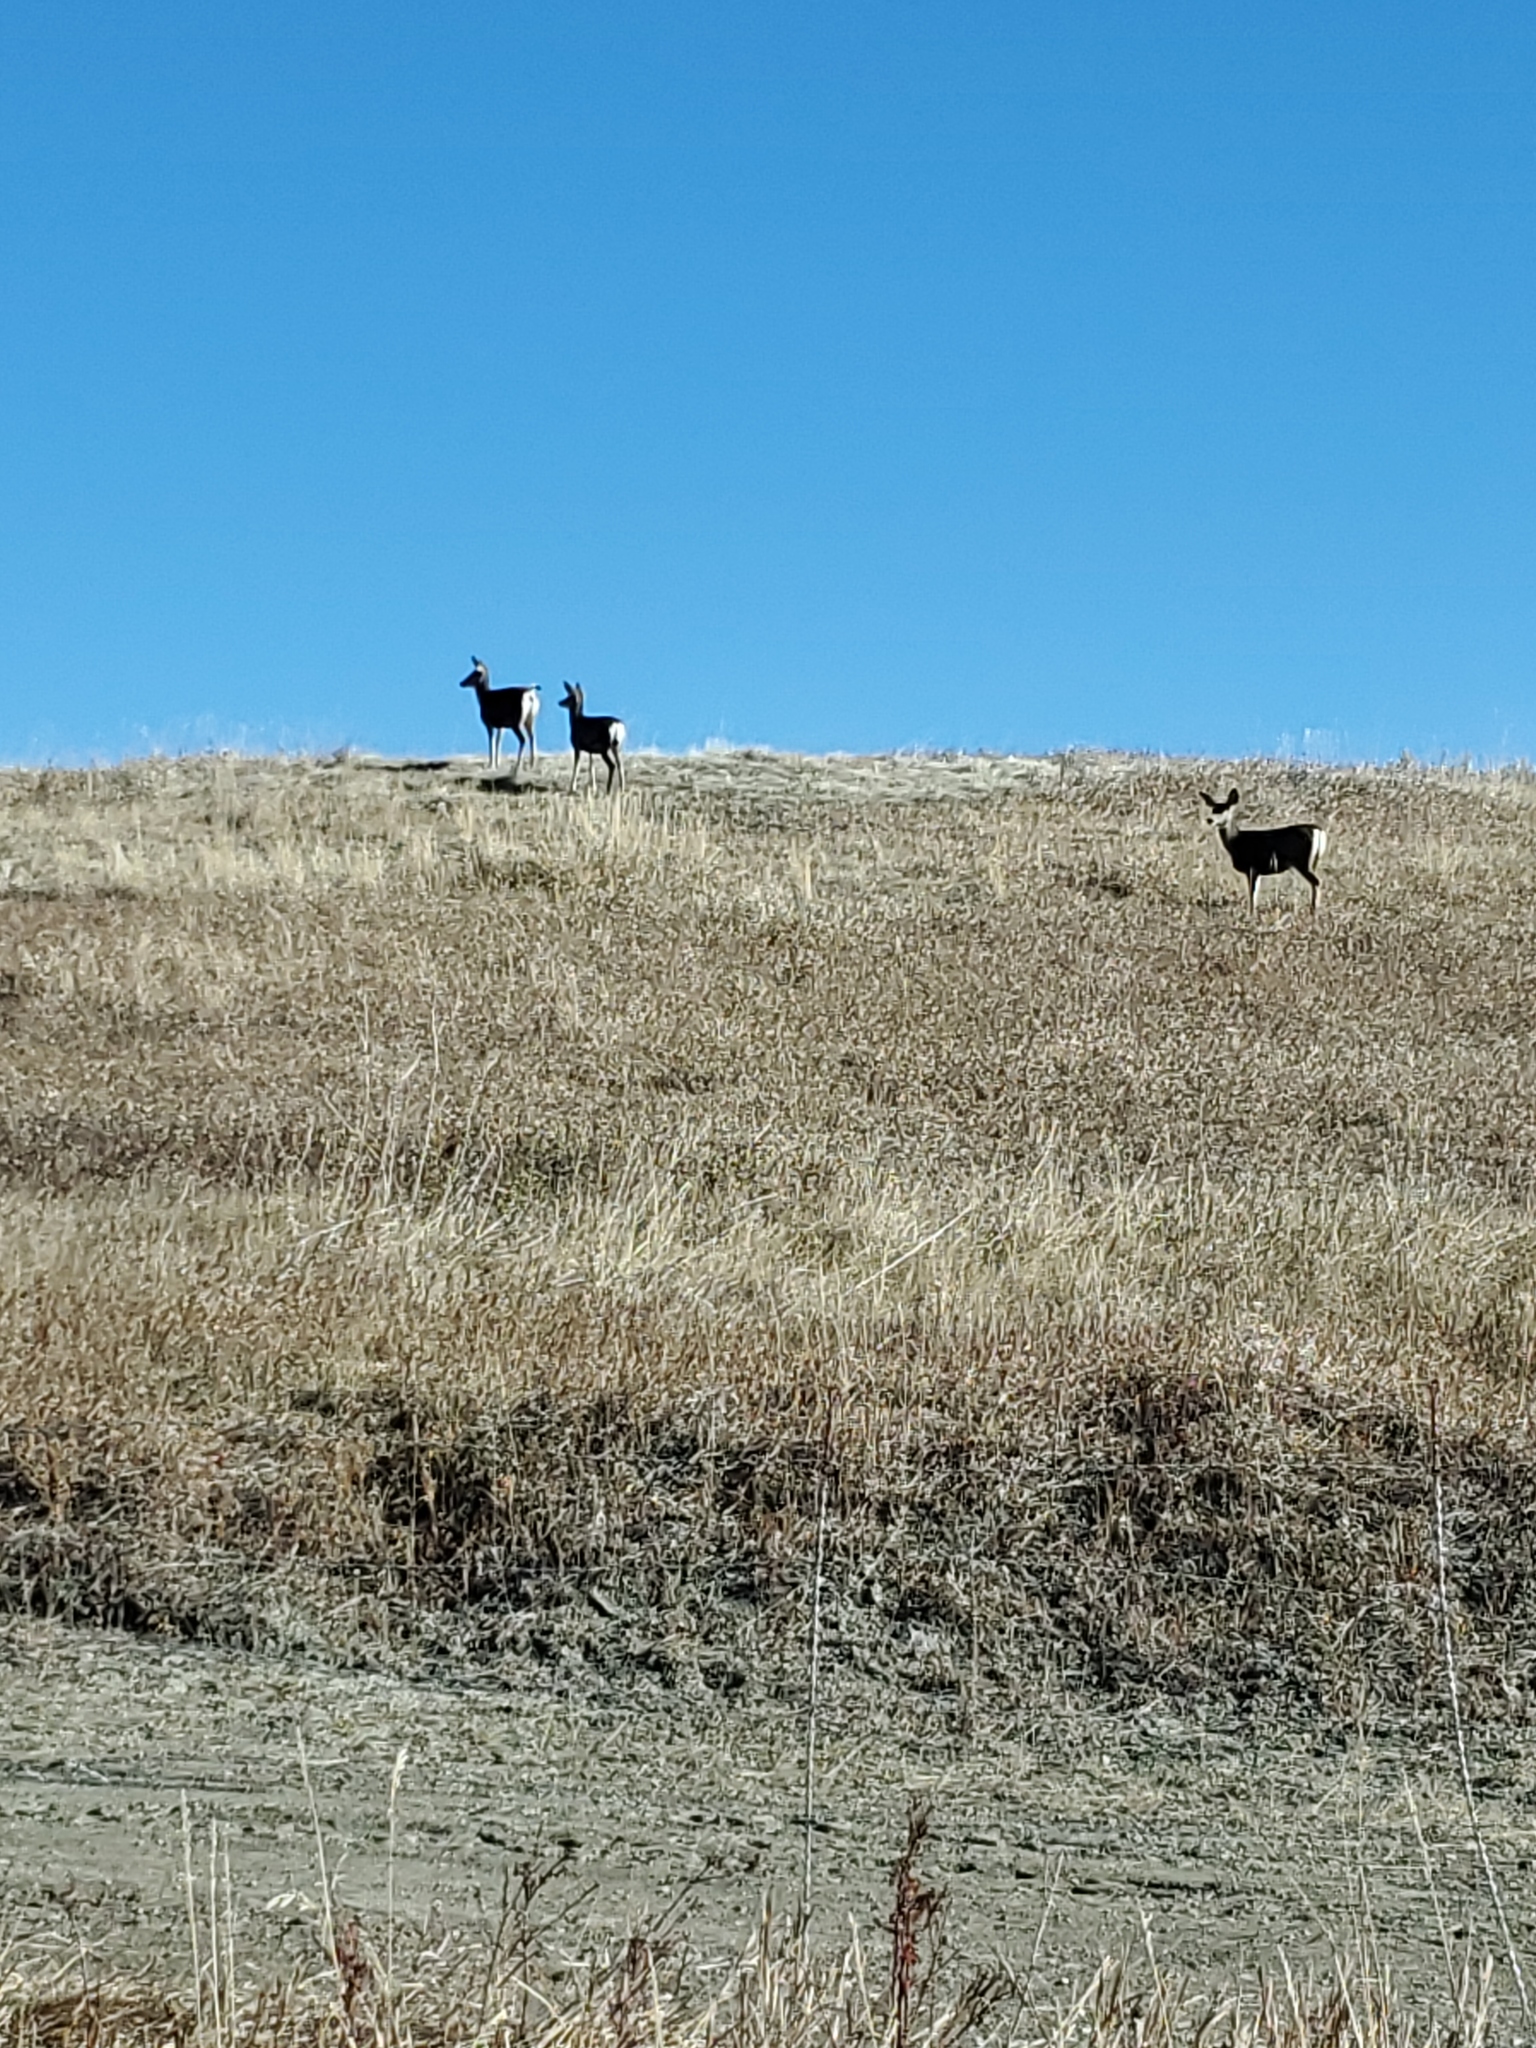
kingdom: Animalia
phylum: Chordata
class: Mammalia
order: Artiodactyla
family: Cervidae
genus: Odocoileus
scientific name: Odocoileus hemionus
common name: Mule deer
